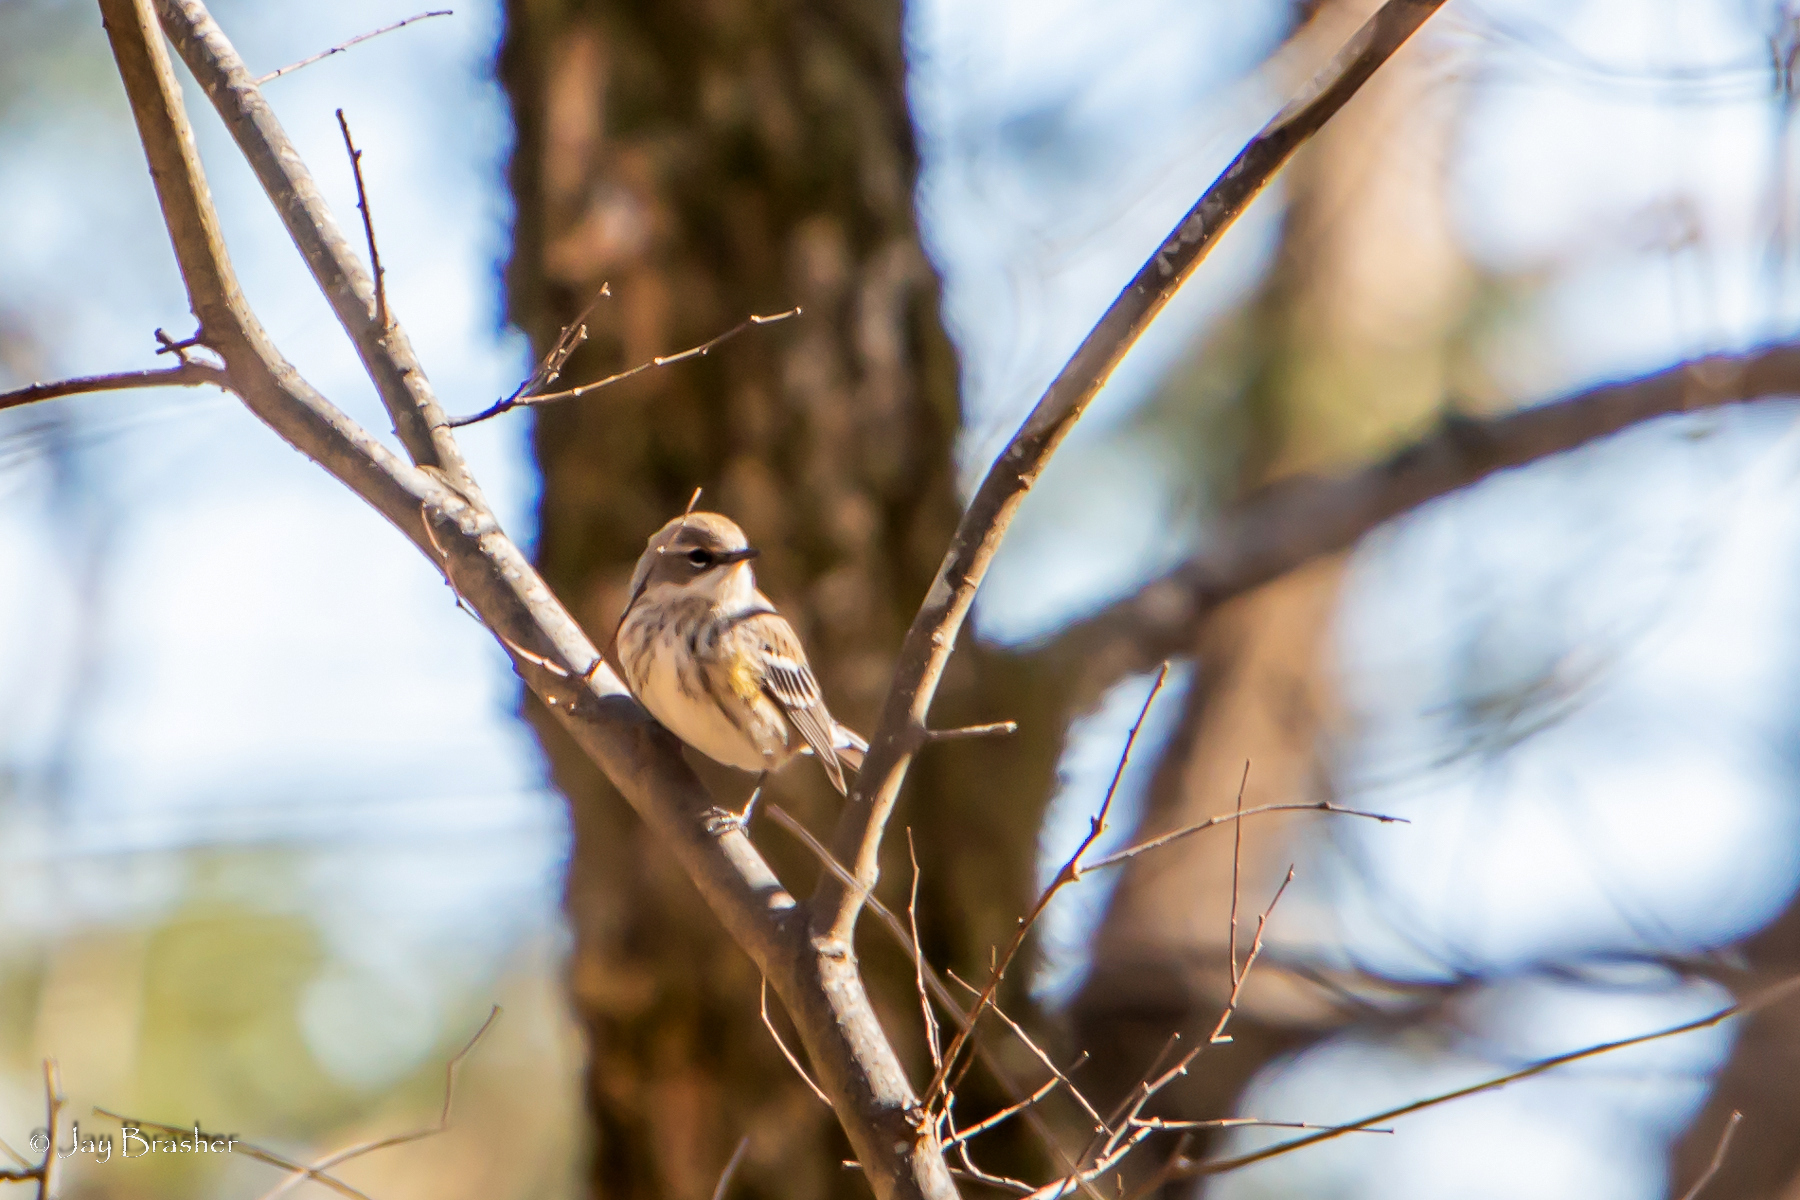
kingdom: Animalia
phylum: Chordata
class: Aves
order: Passeriformes
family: Parulidae
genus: Setophaga
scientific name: Setophaga coronata
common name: Myrtle warbler
